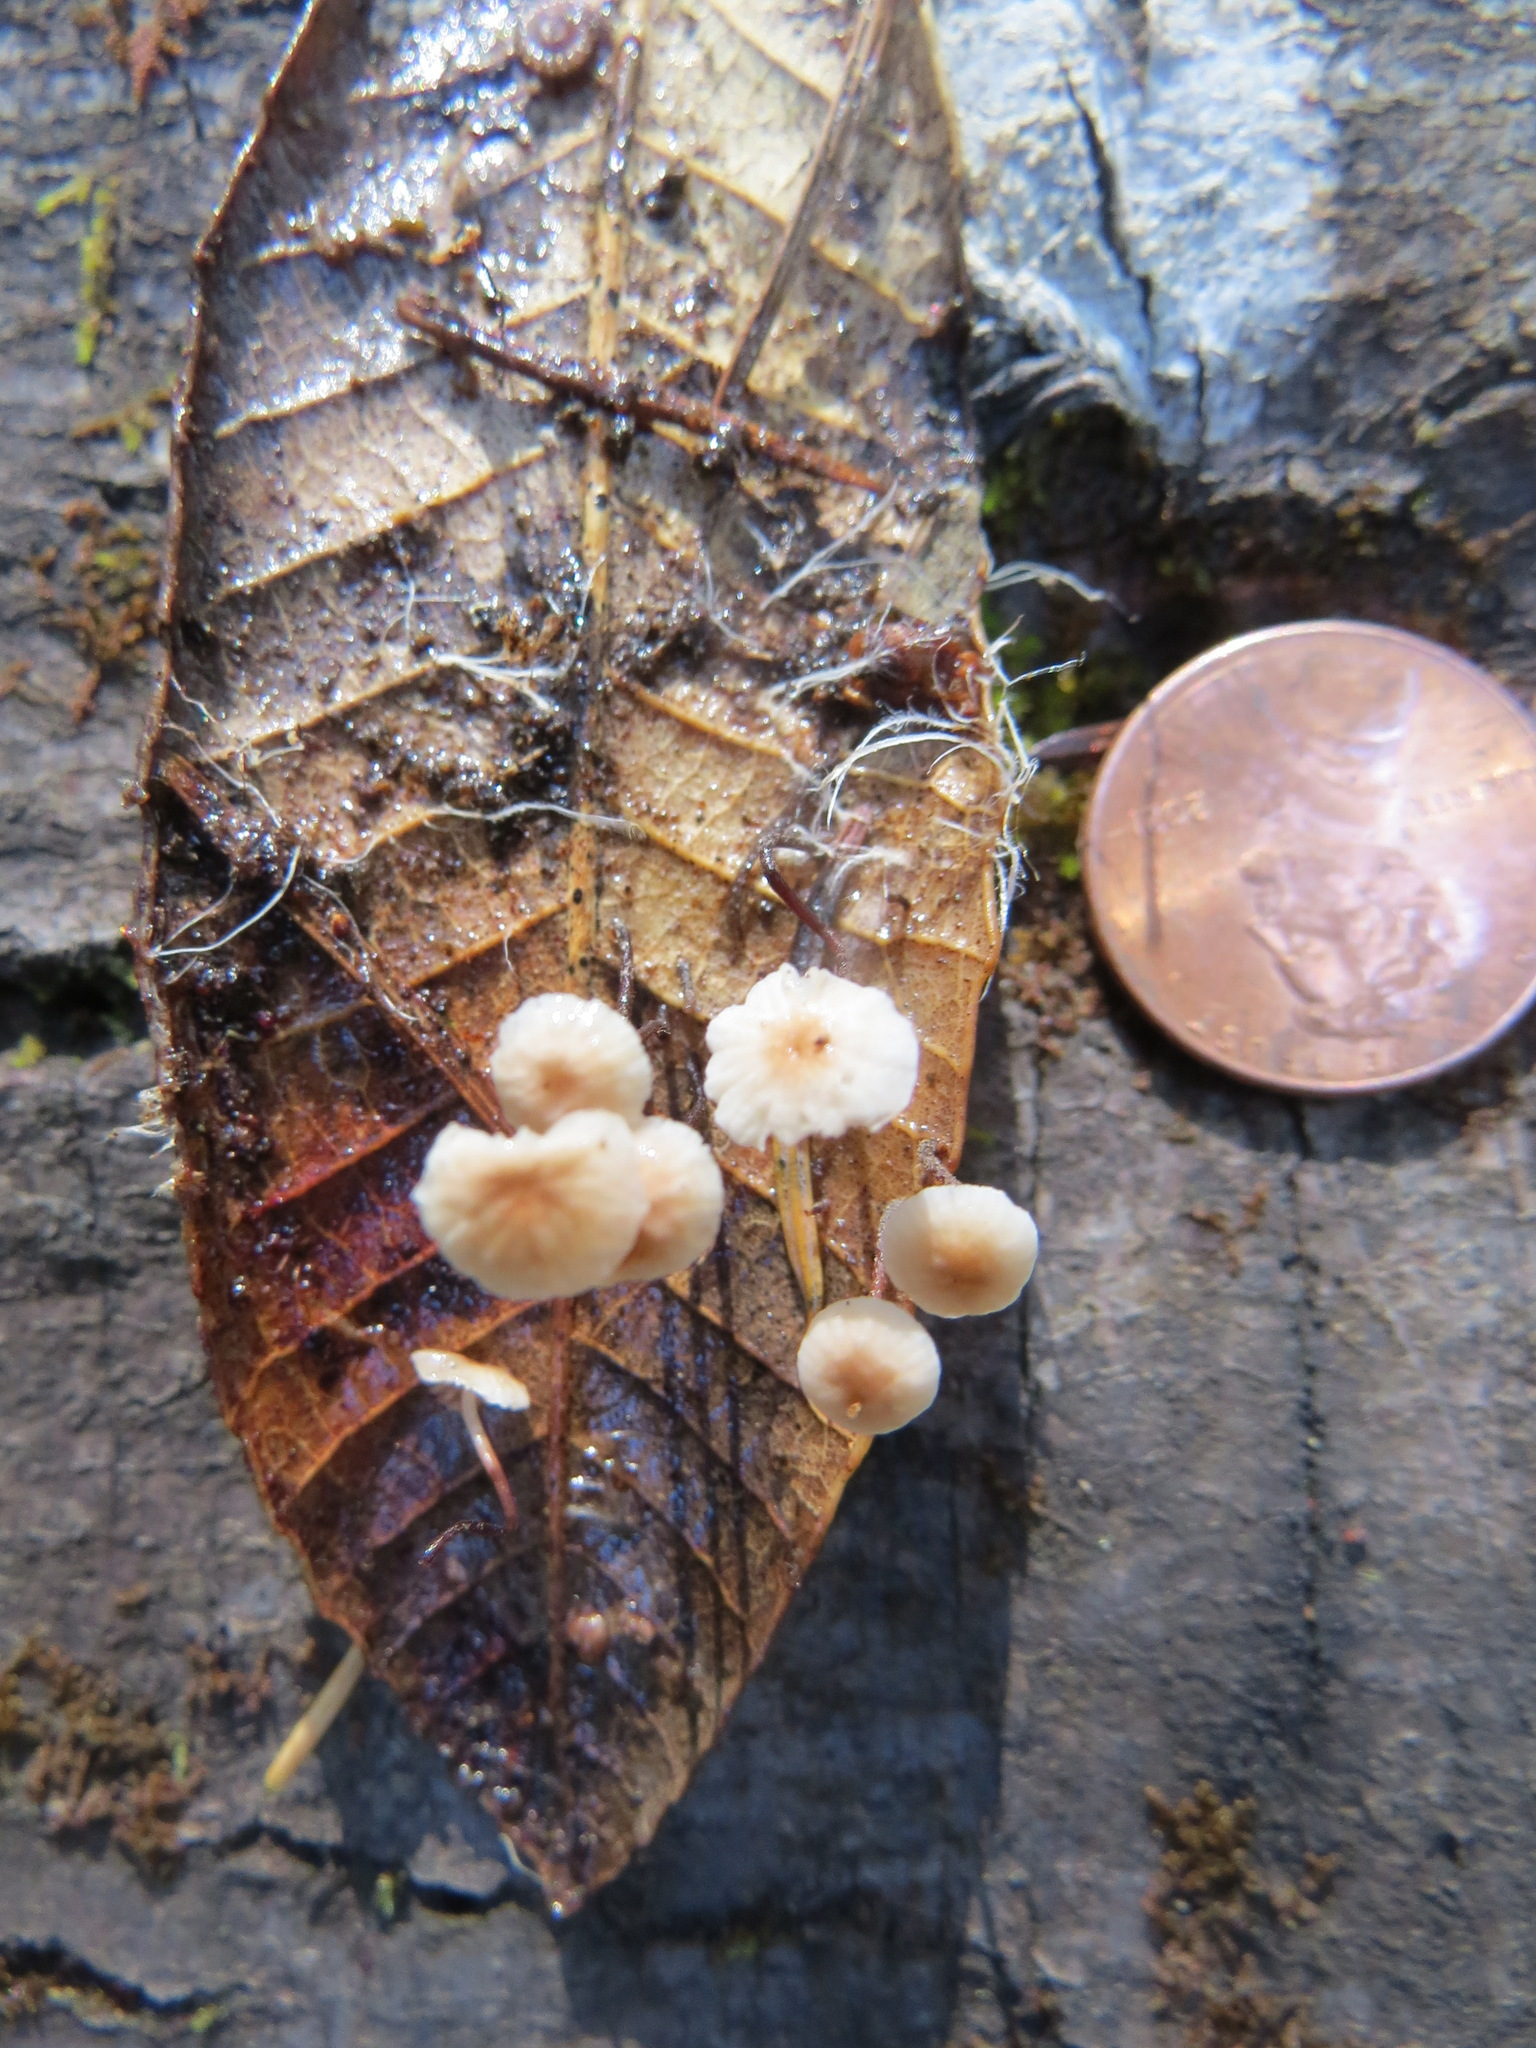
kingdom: Fungi
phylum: Basidiomycota
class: Agaricomycetes
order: Agaricales
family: Omphalotaceae
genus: Collybiopsis
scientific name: Collybiopsis quercophila
